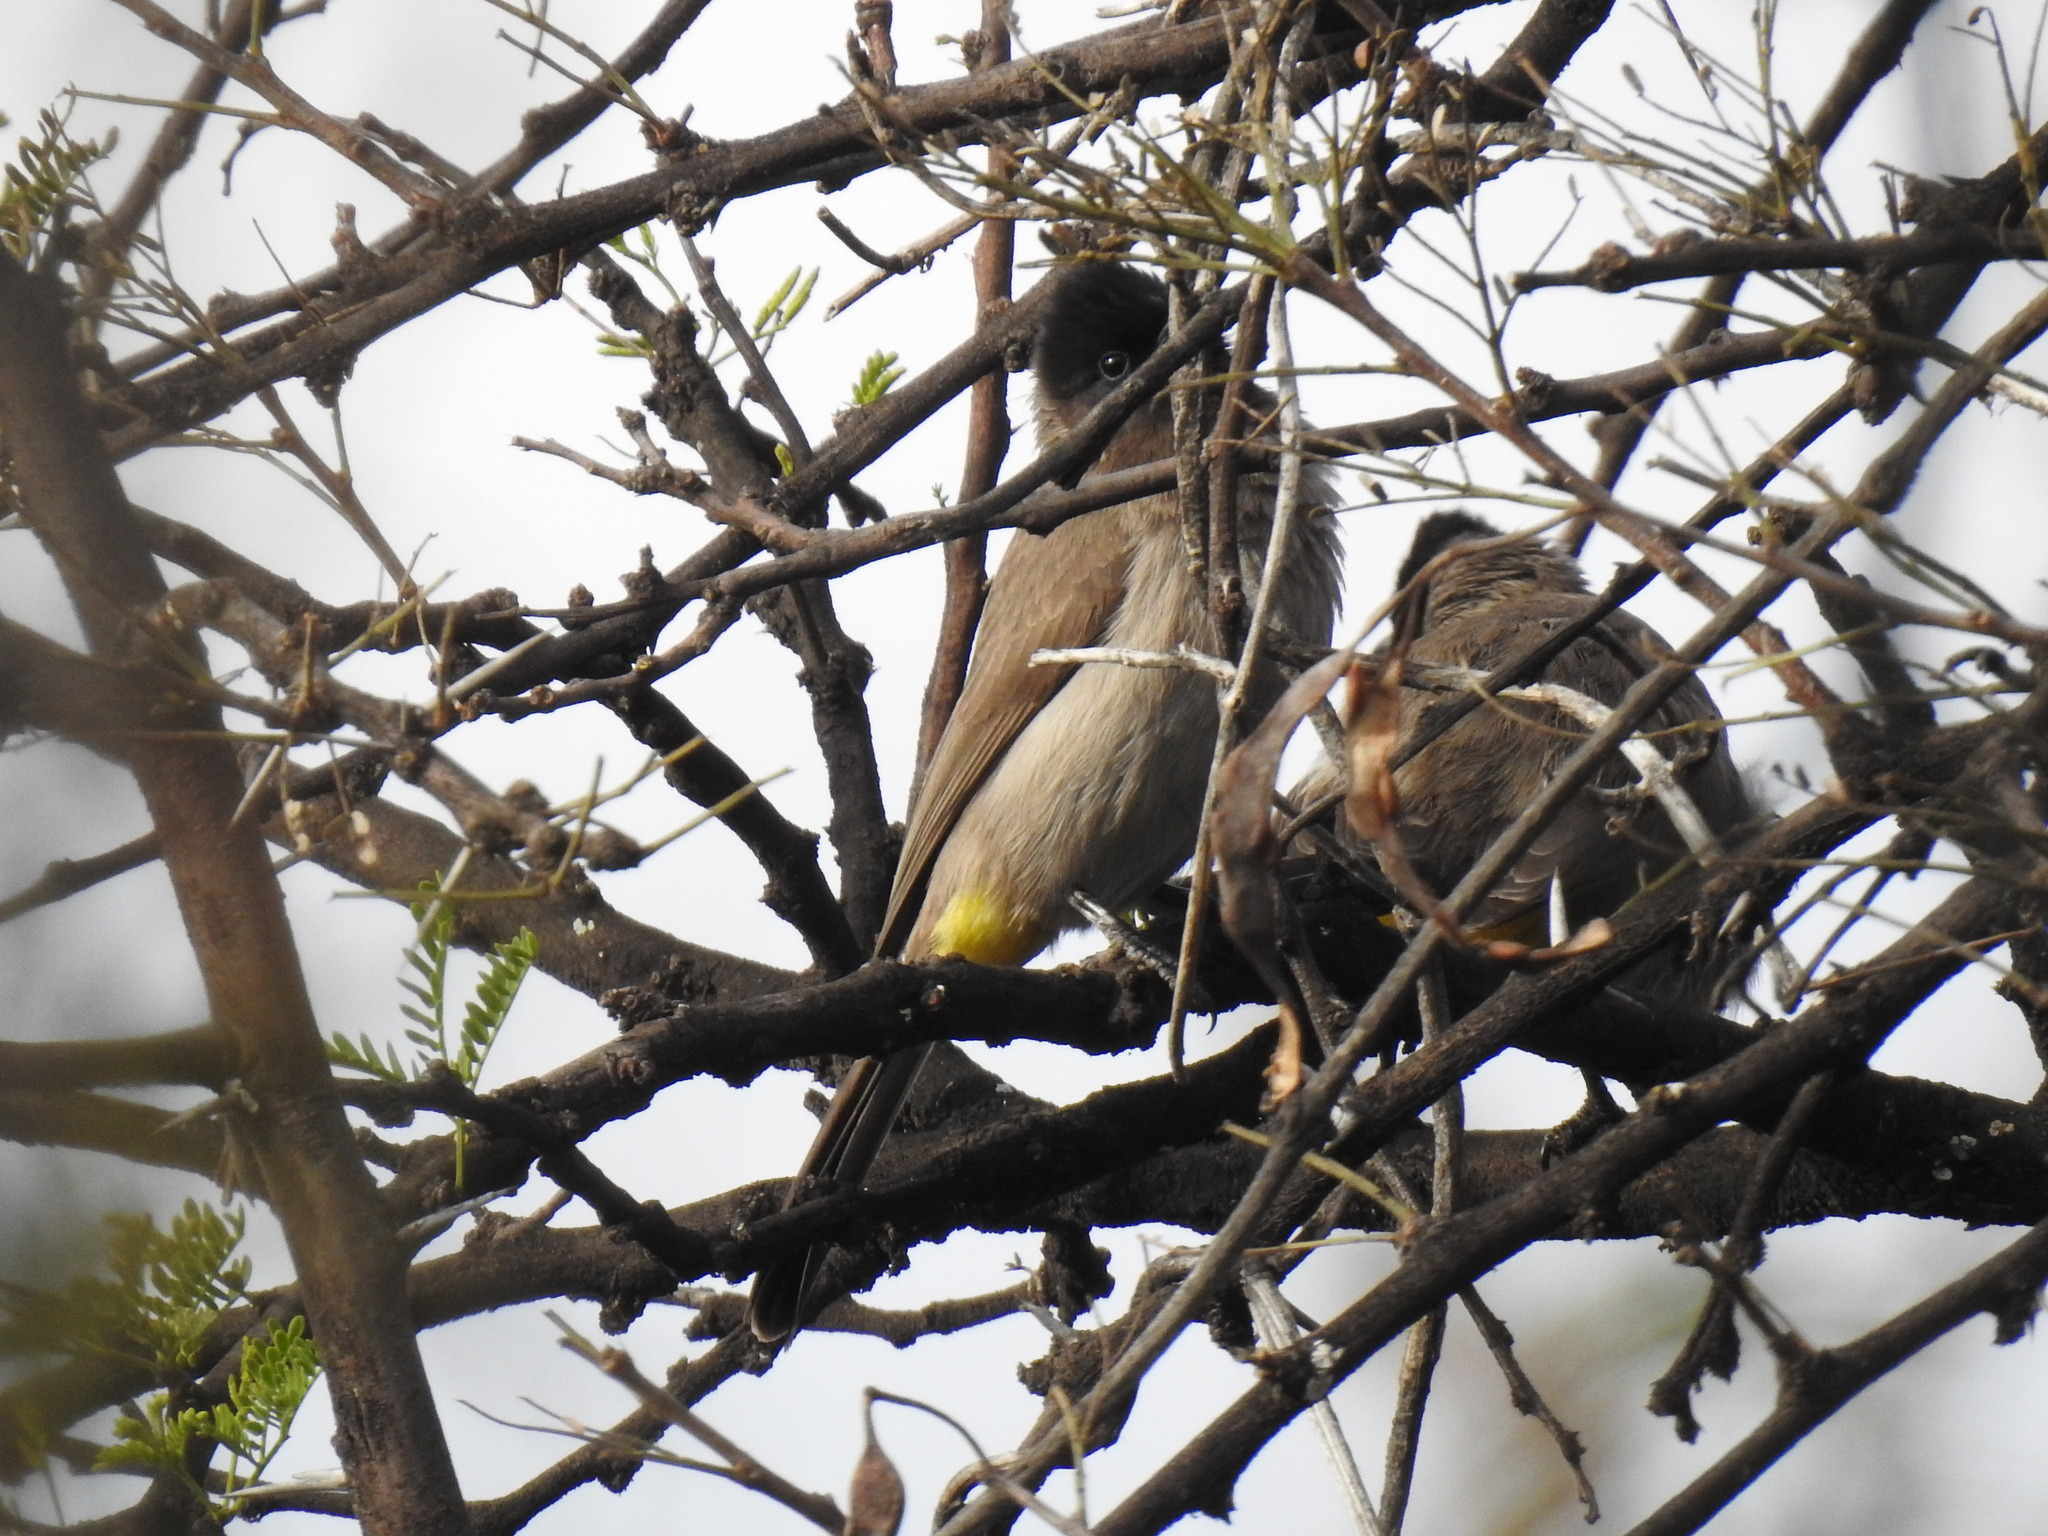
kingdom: Animalia
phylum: Chordata
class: Aves
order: Passeriformes
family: Pycnonotidae
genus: Pycnonotus
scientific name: Pycnonotus barbatus
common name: Common bulbul
